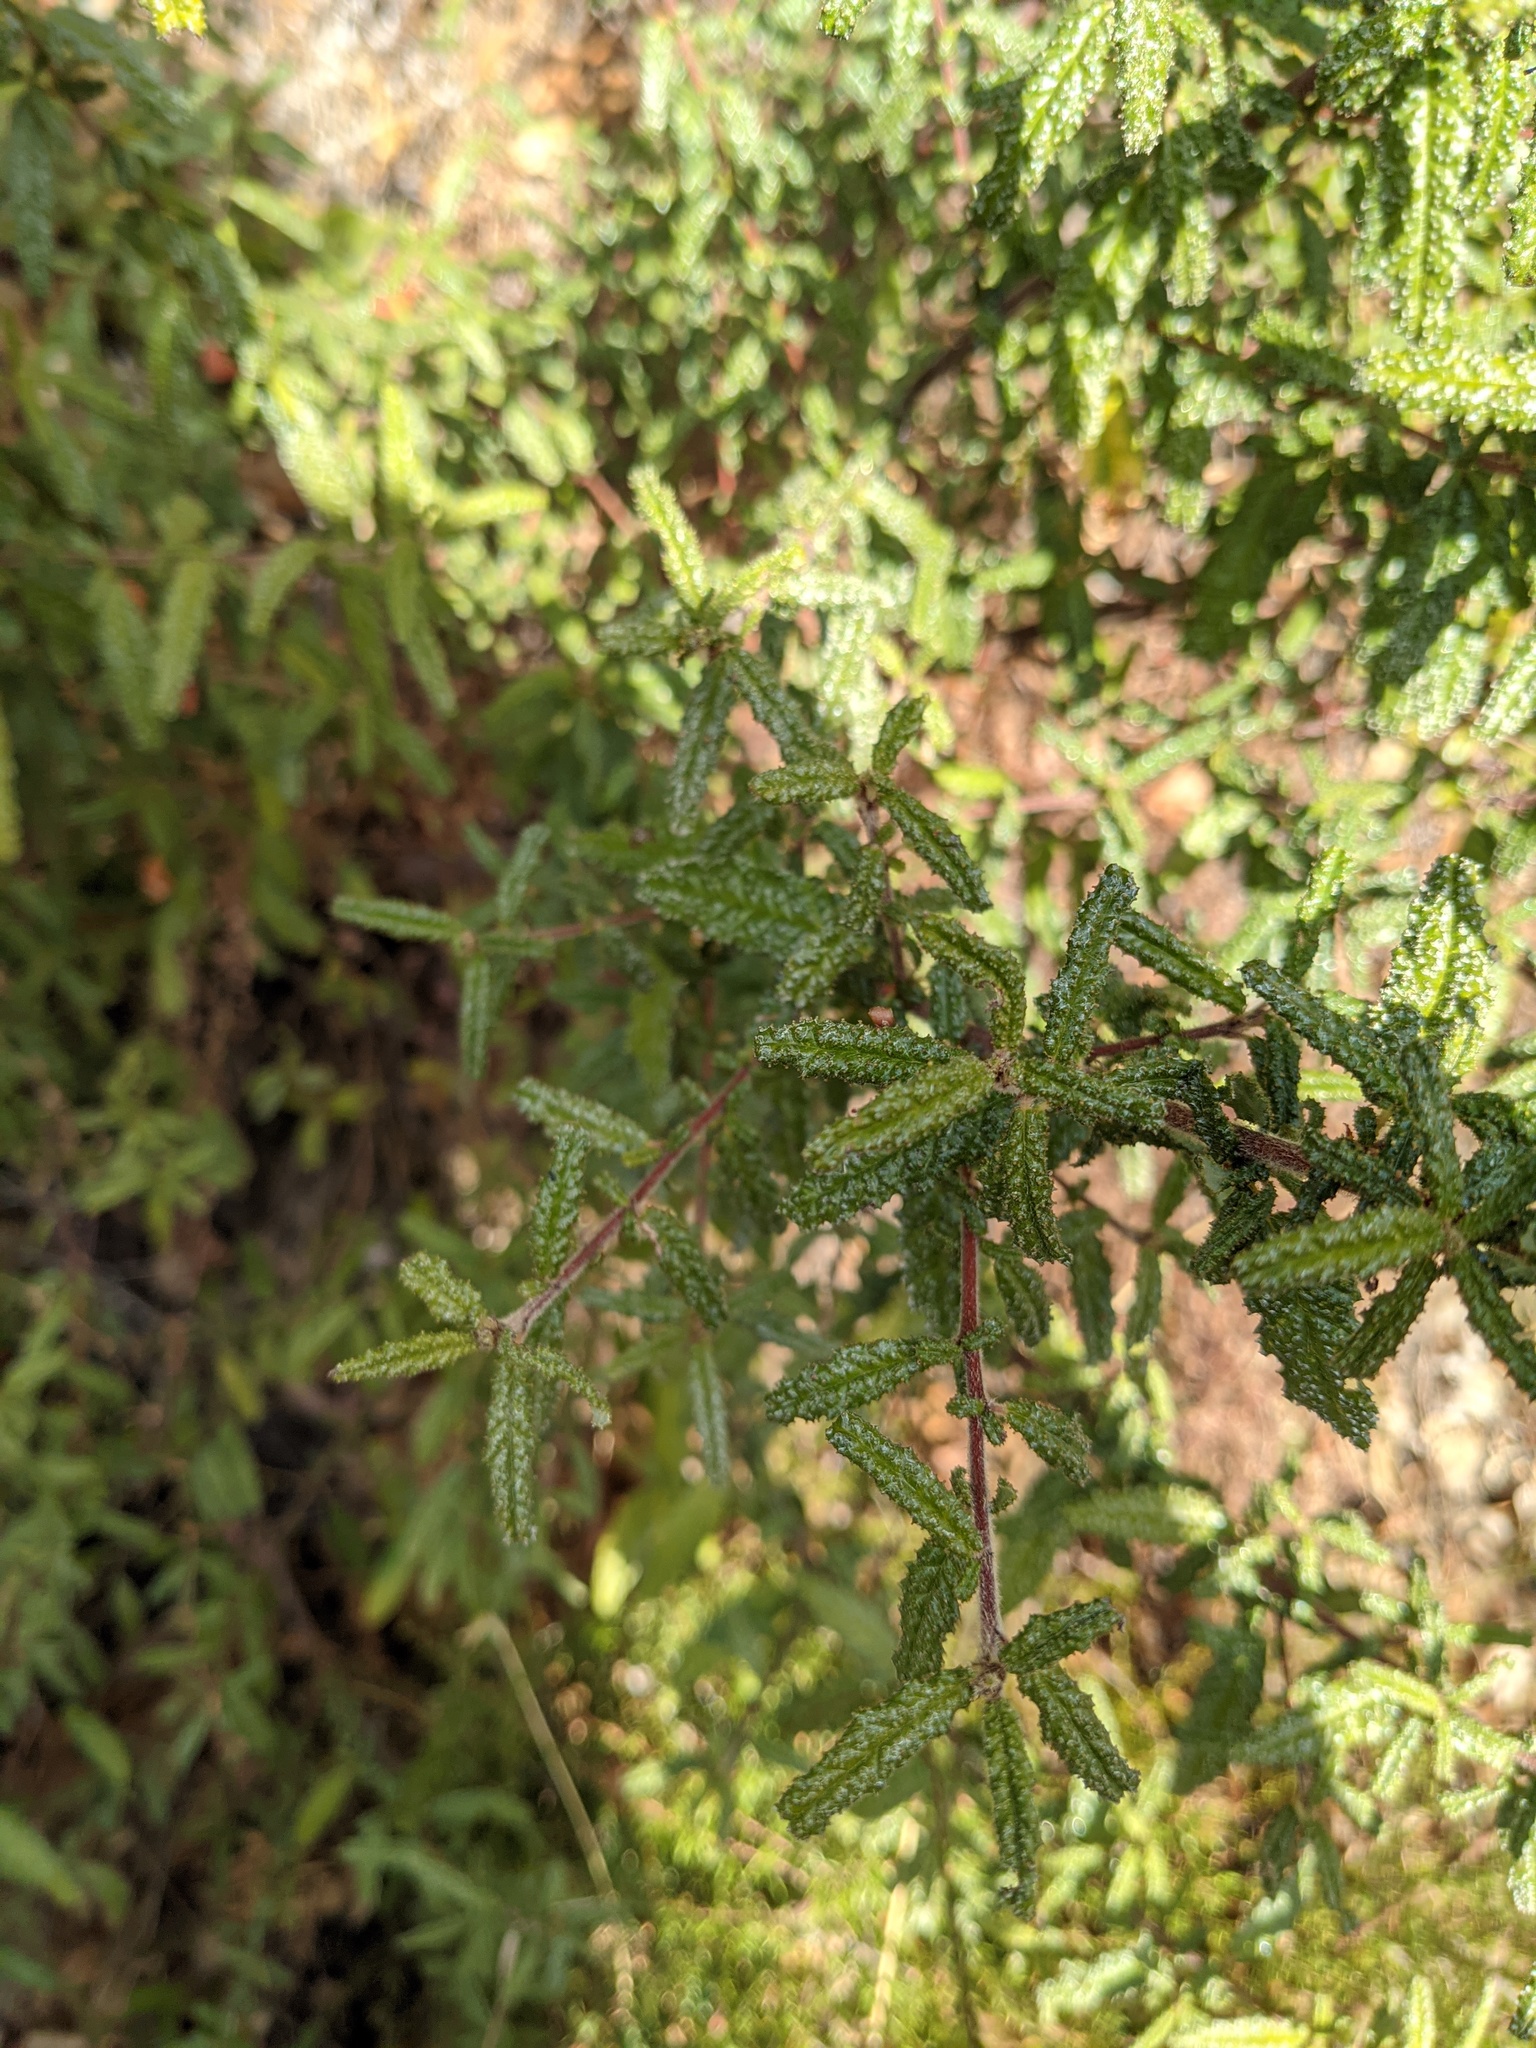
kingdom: Plantae
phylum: Tracheophyta
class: Magnoliopsida
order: Rosales
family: Rhamnaceae
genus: Ceanothus
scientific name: Ceanothus papillosus
